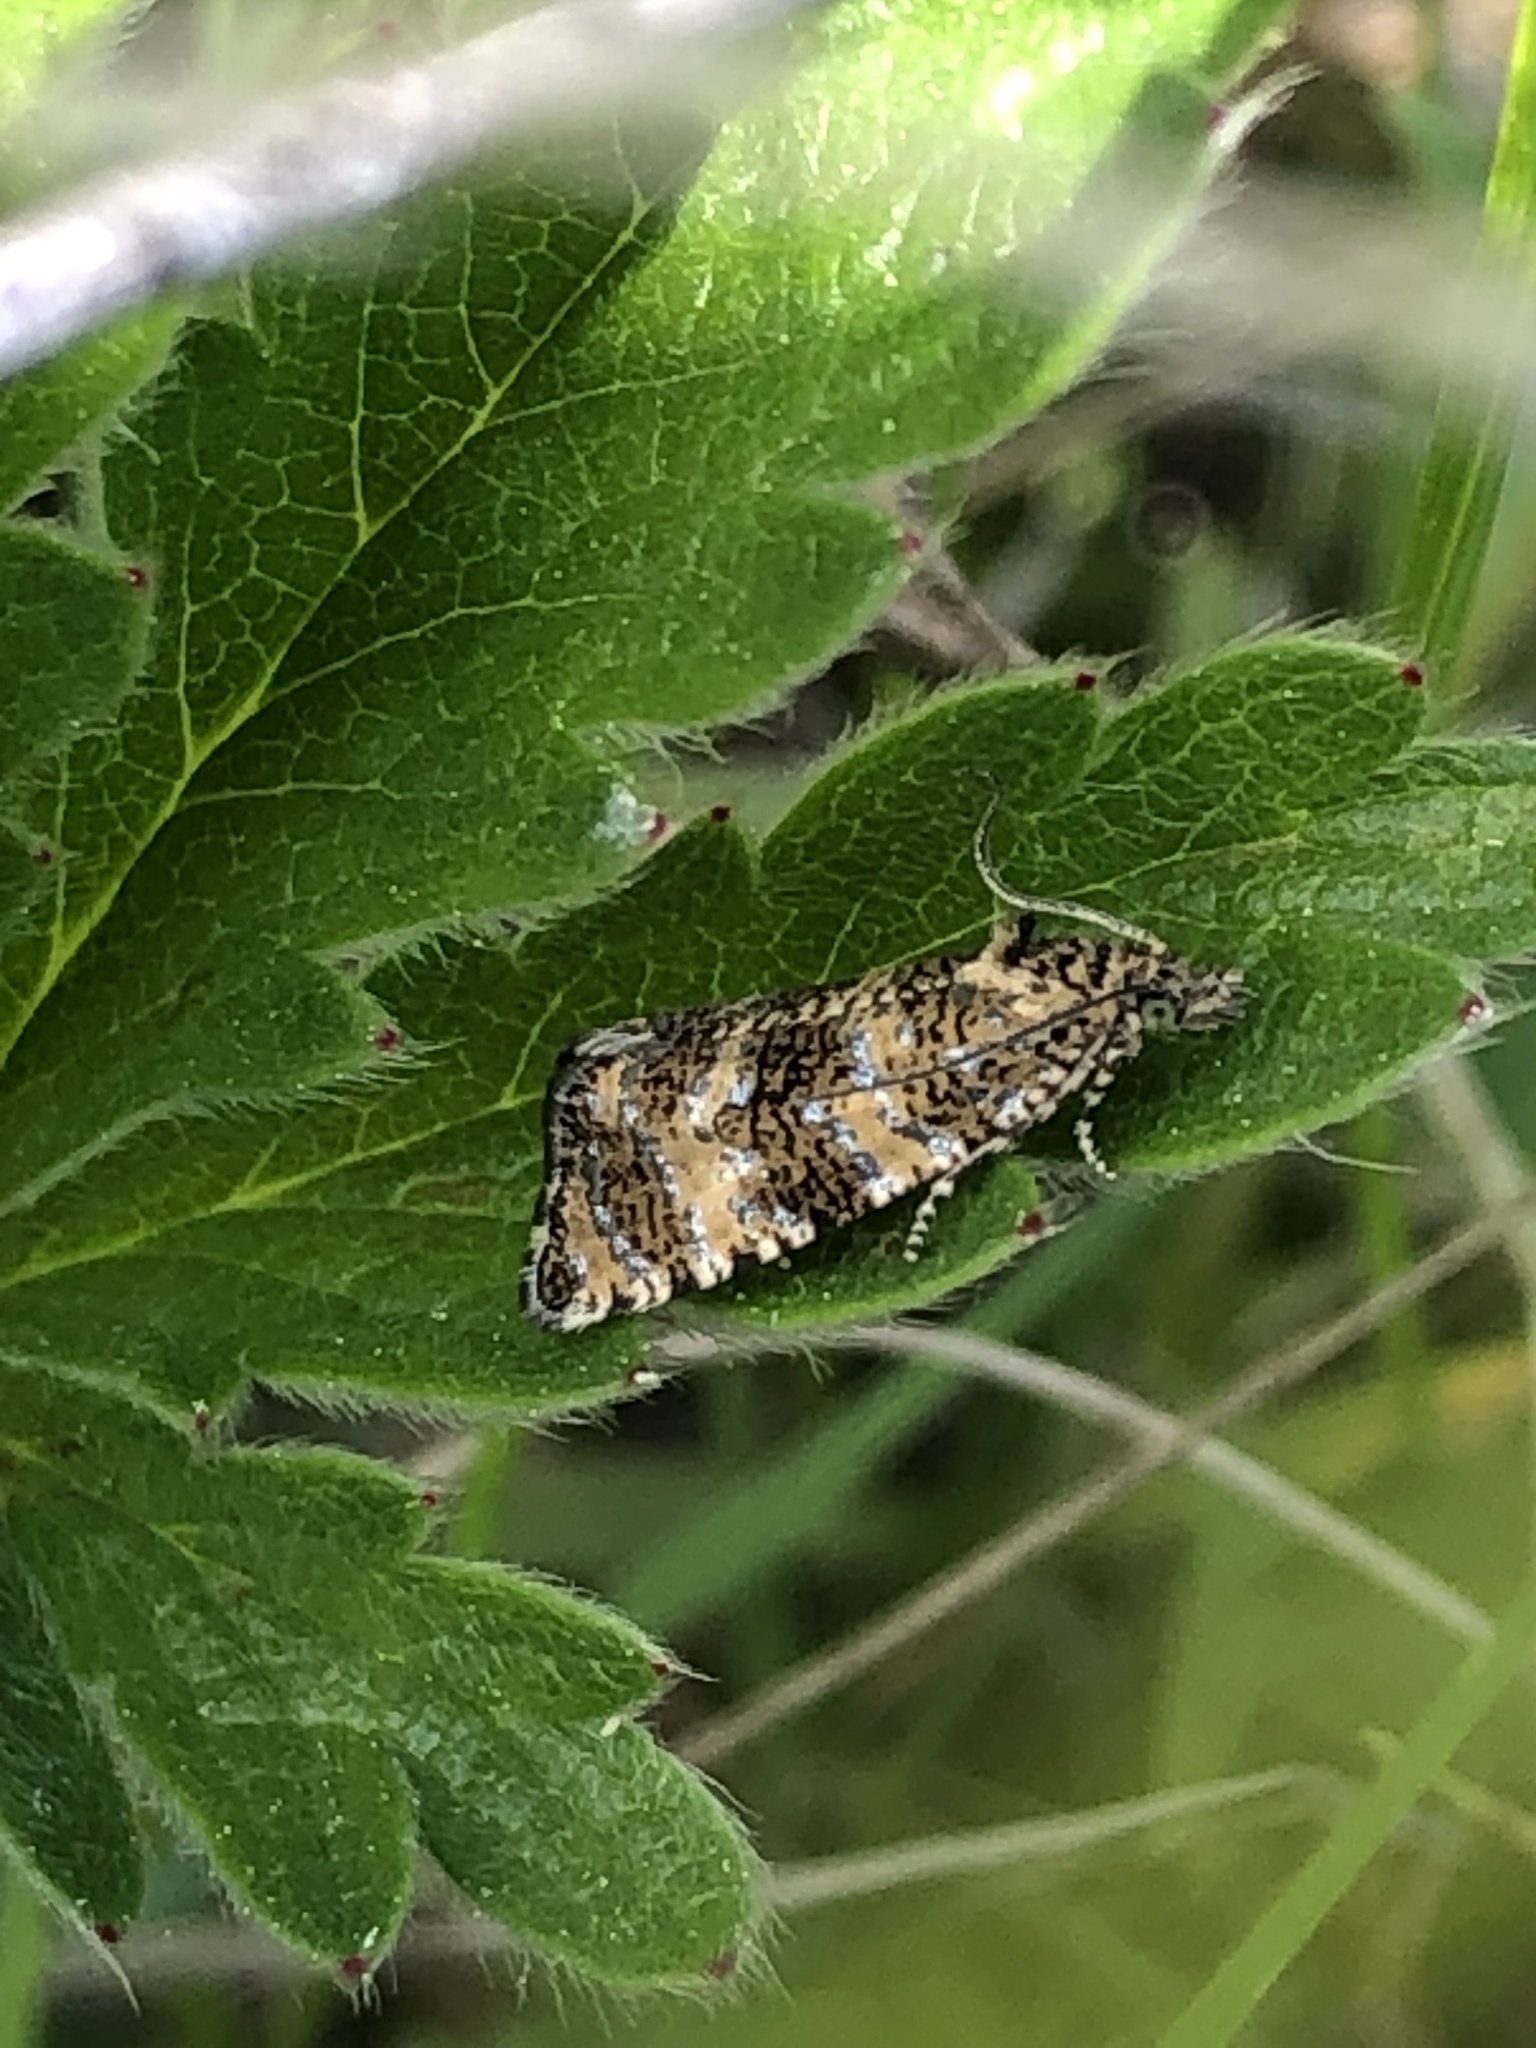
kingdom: Animalia
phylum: Arthropoda
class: Insecta
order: Lepidoptera
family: Tortricidae
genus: Olethreutes
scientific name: Olethreutes galaxana
